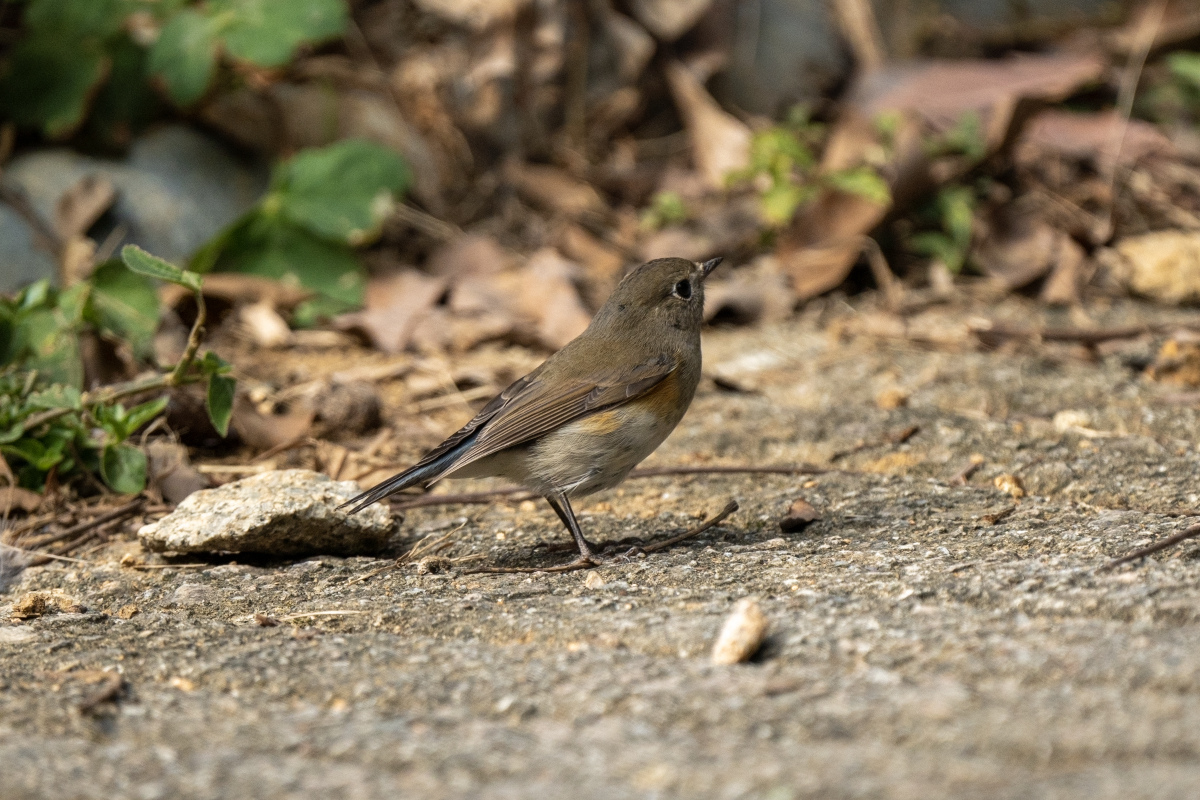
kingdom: Animalia
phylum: Chordata
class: Aves
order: Passeriformes
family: Muscicapidae
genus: Tarsiger
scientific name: Tarsiger cyanurus
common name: Red-flanked bluetail
